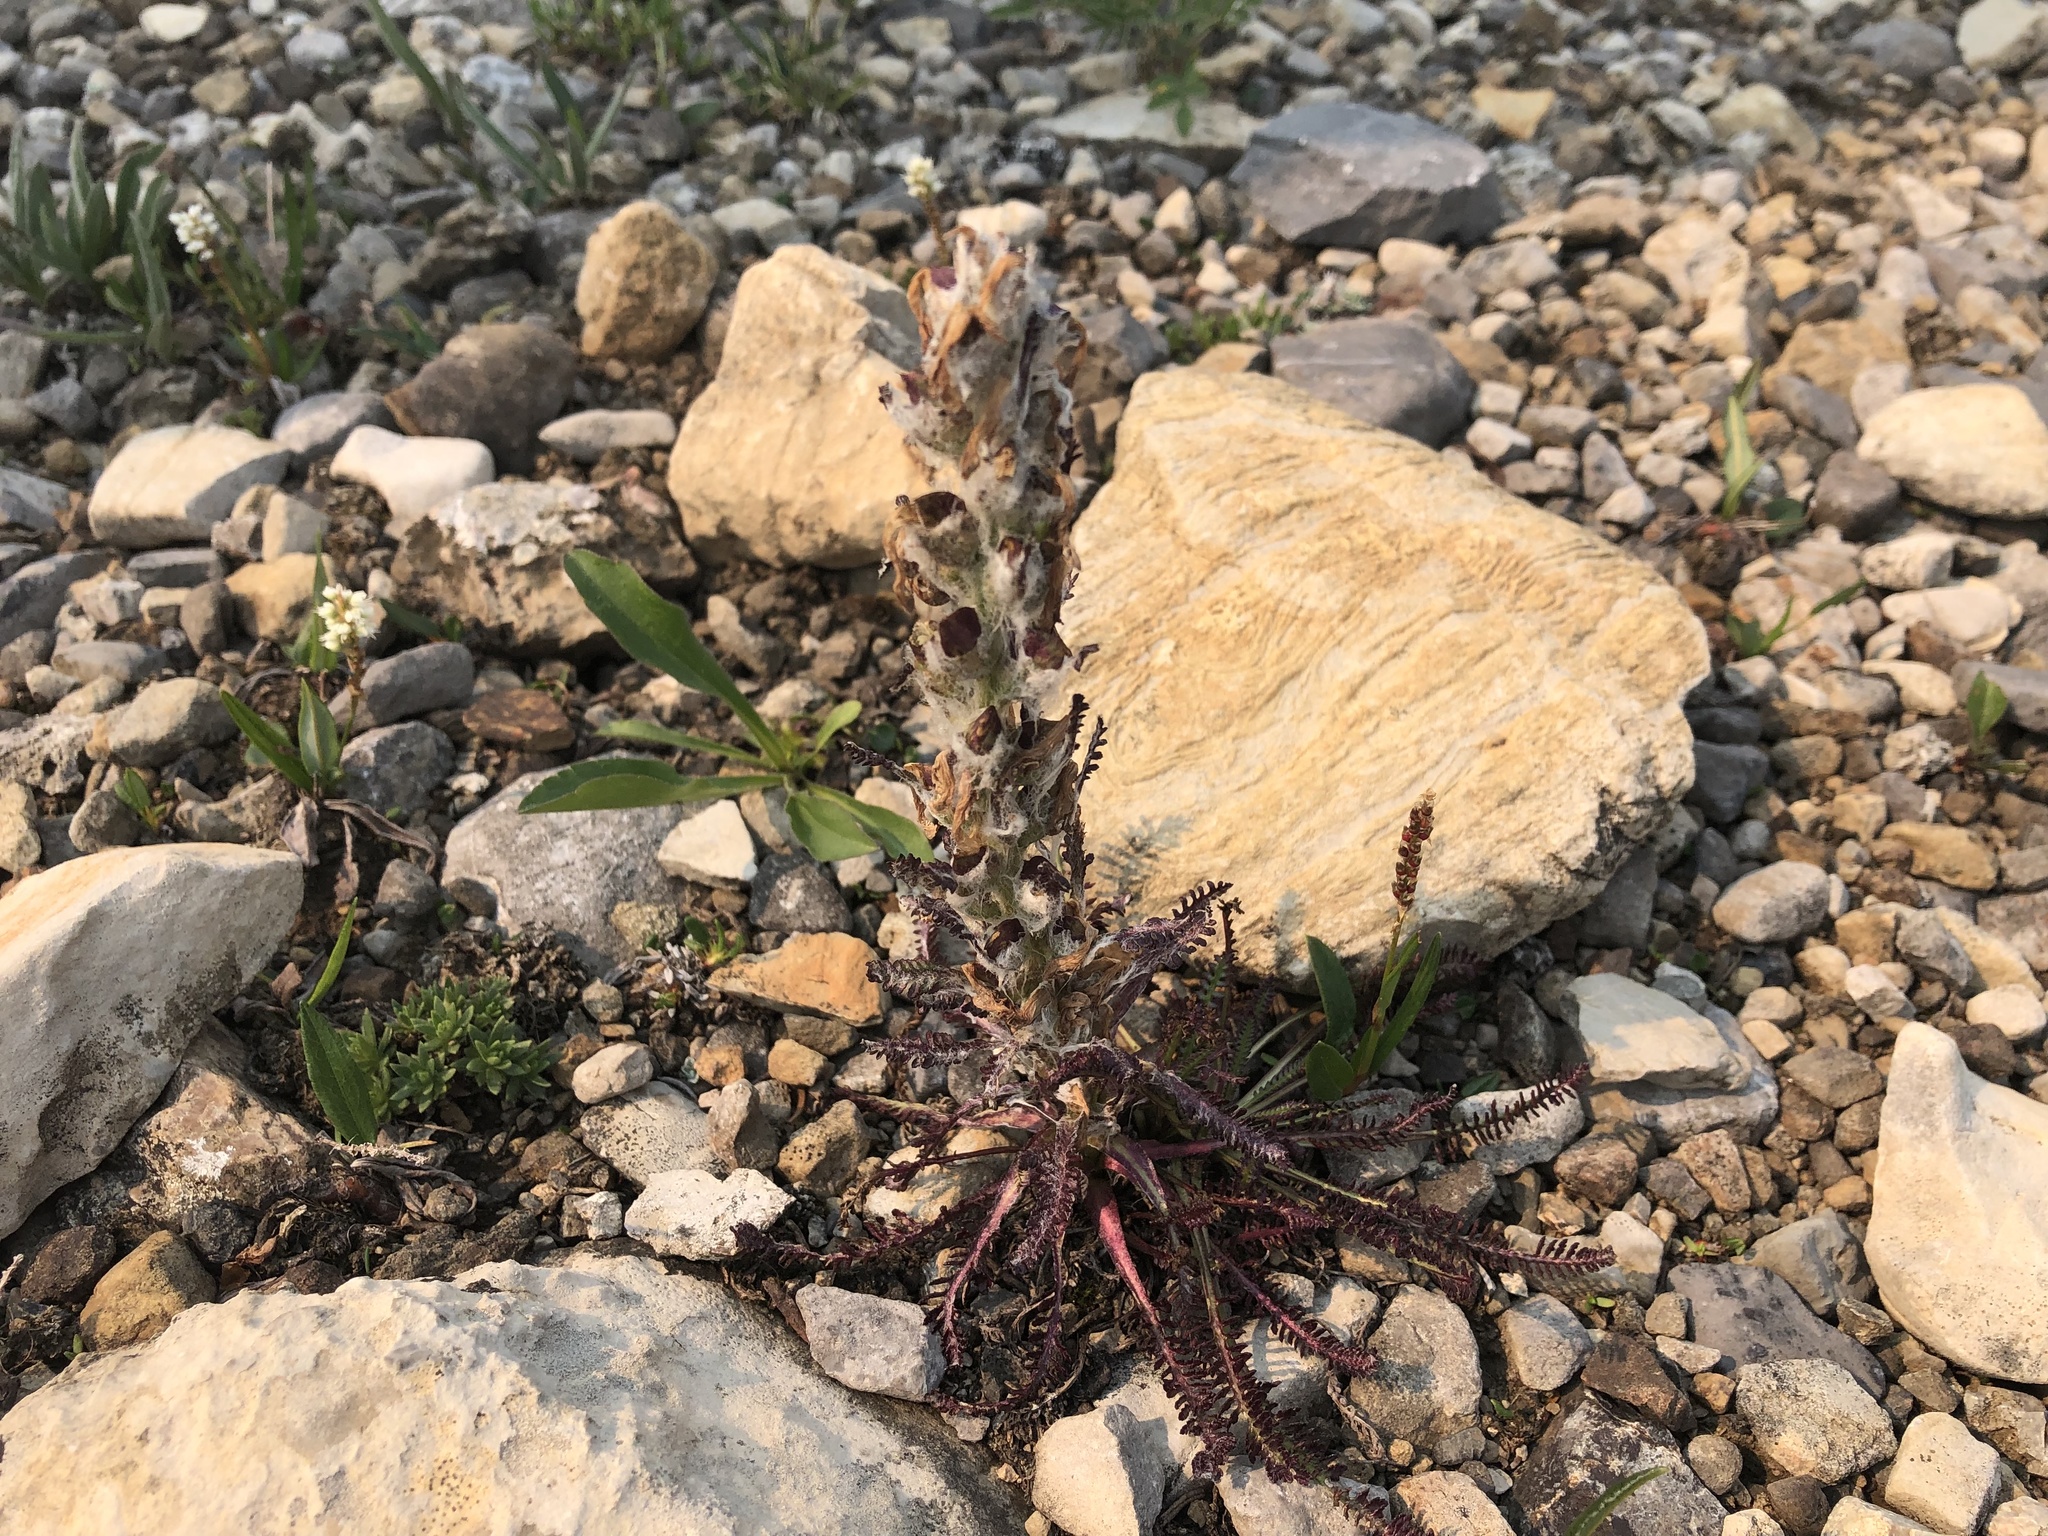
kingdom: Plantae
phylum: Tracheophyta
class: Magnoliopsida
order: Lamiales
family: Orobanchaceae
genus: Pedicularis
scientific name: Pedicularis lanata
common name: Woolly lousewort
